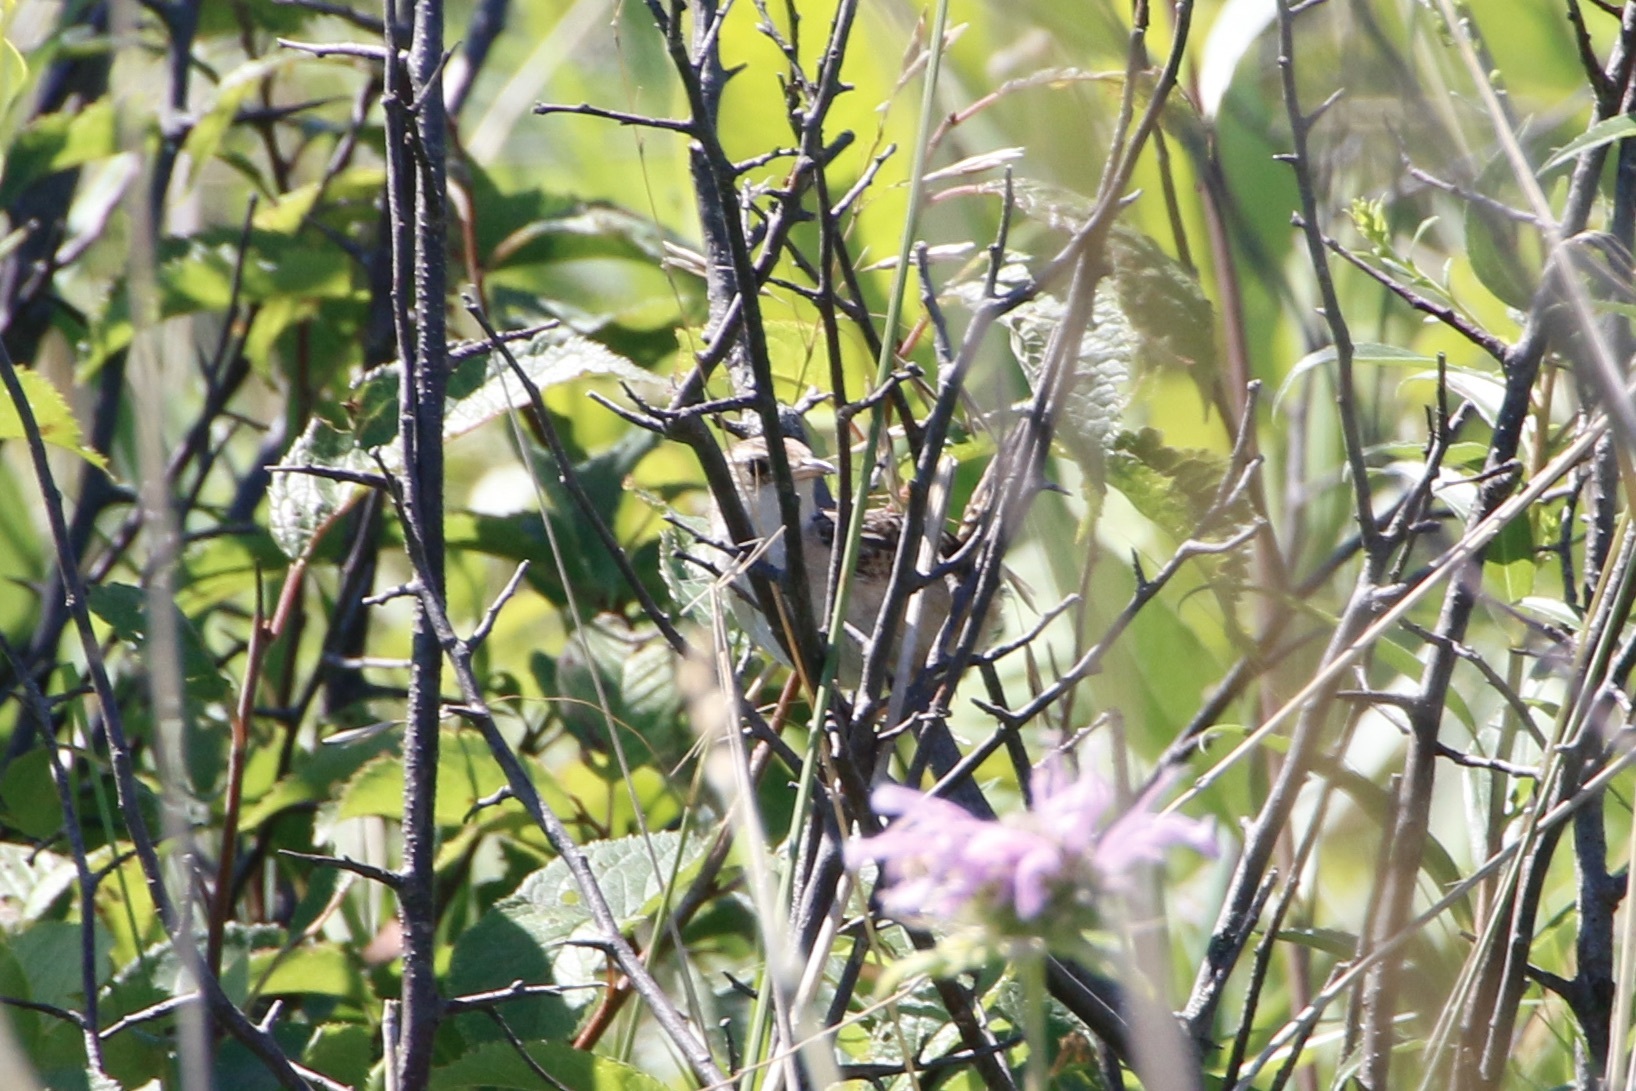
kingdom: Animalia
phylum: Chordata
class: Aves
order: Passeriformes
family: Troglodytidae
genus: Cistothorus
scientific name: Cistothorus platensis
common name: Sedge wren
